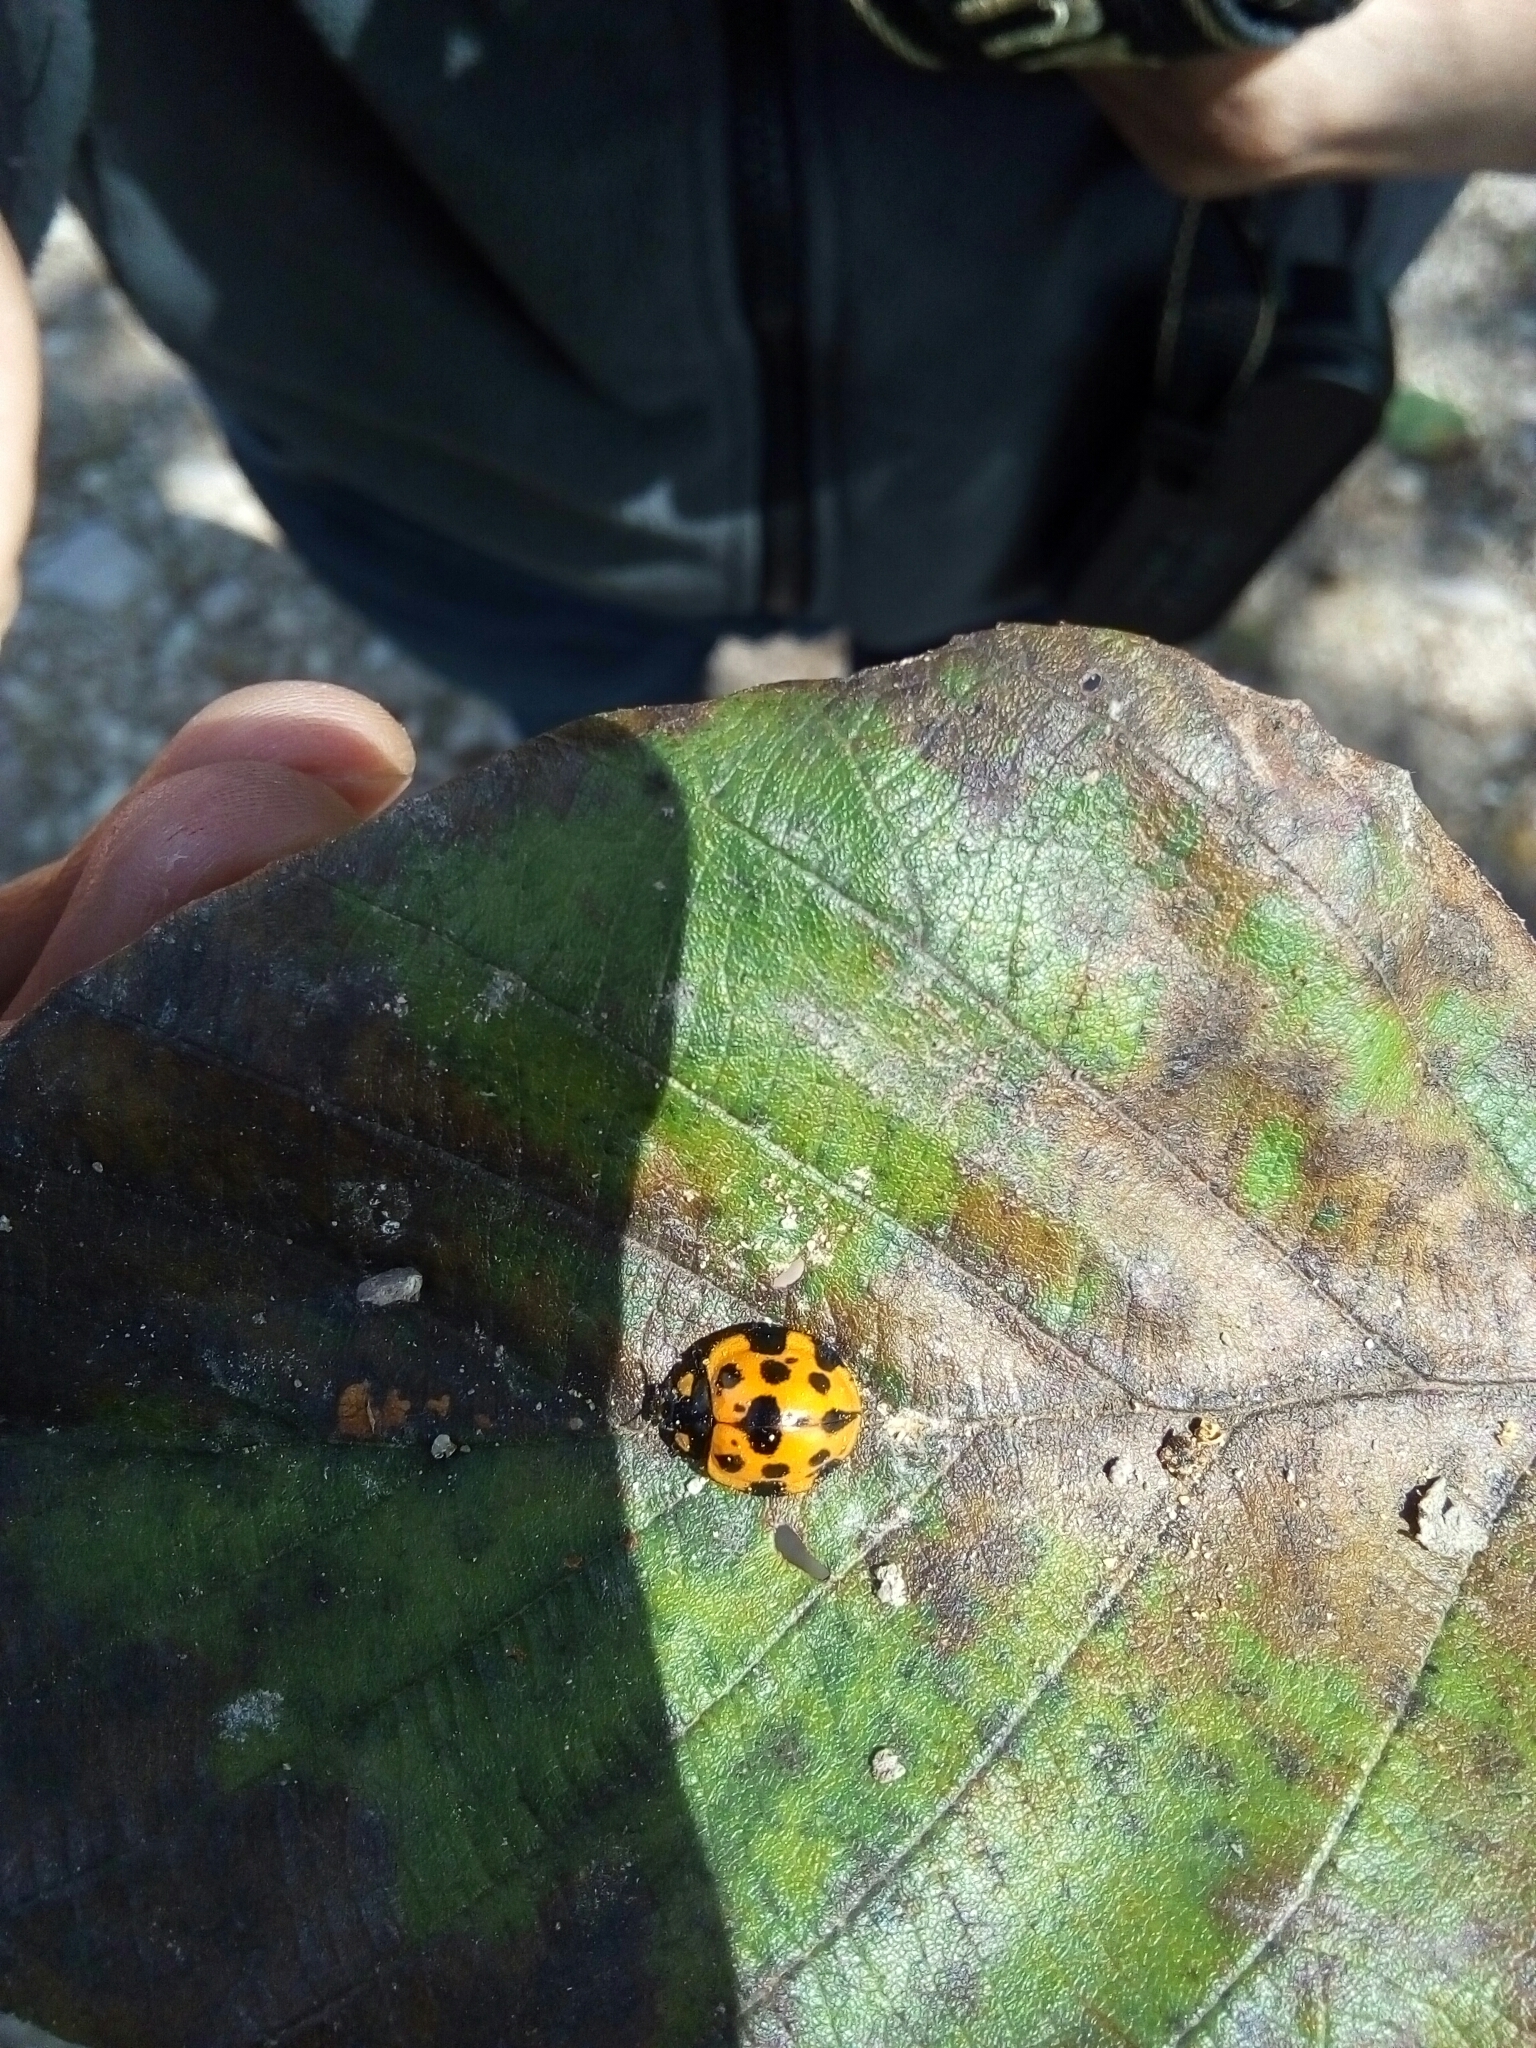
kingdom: Animalia
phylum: Arthropoda
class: Insecta
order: Coleoptera
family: Coccinellidae
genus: Neda
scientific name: Neda
